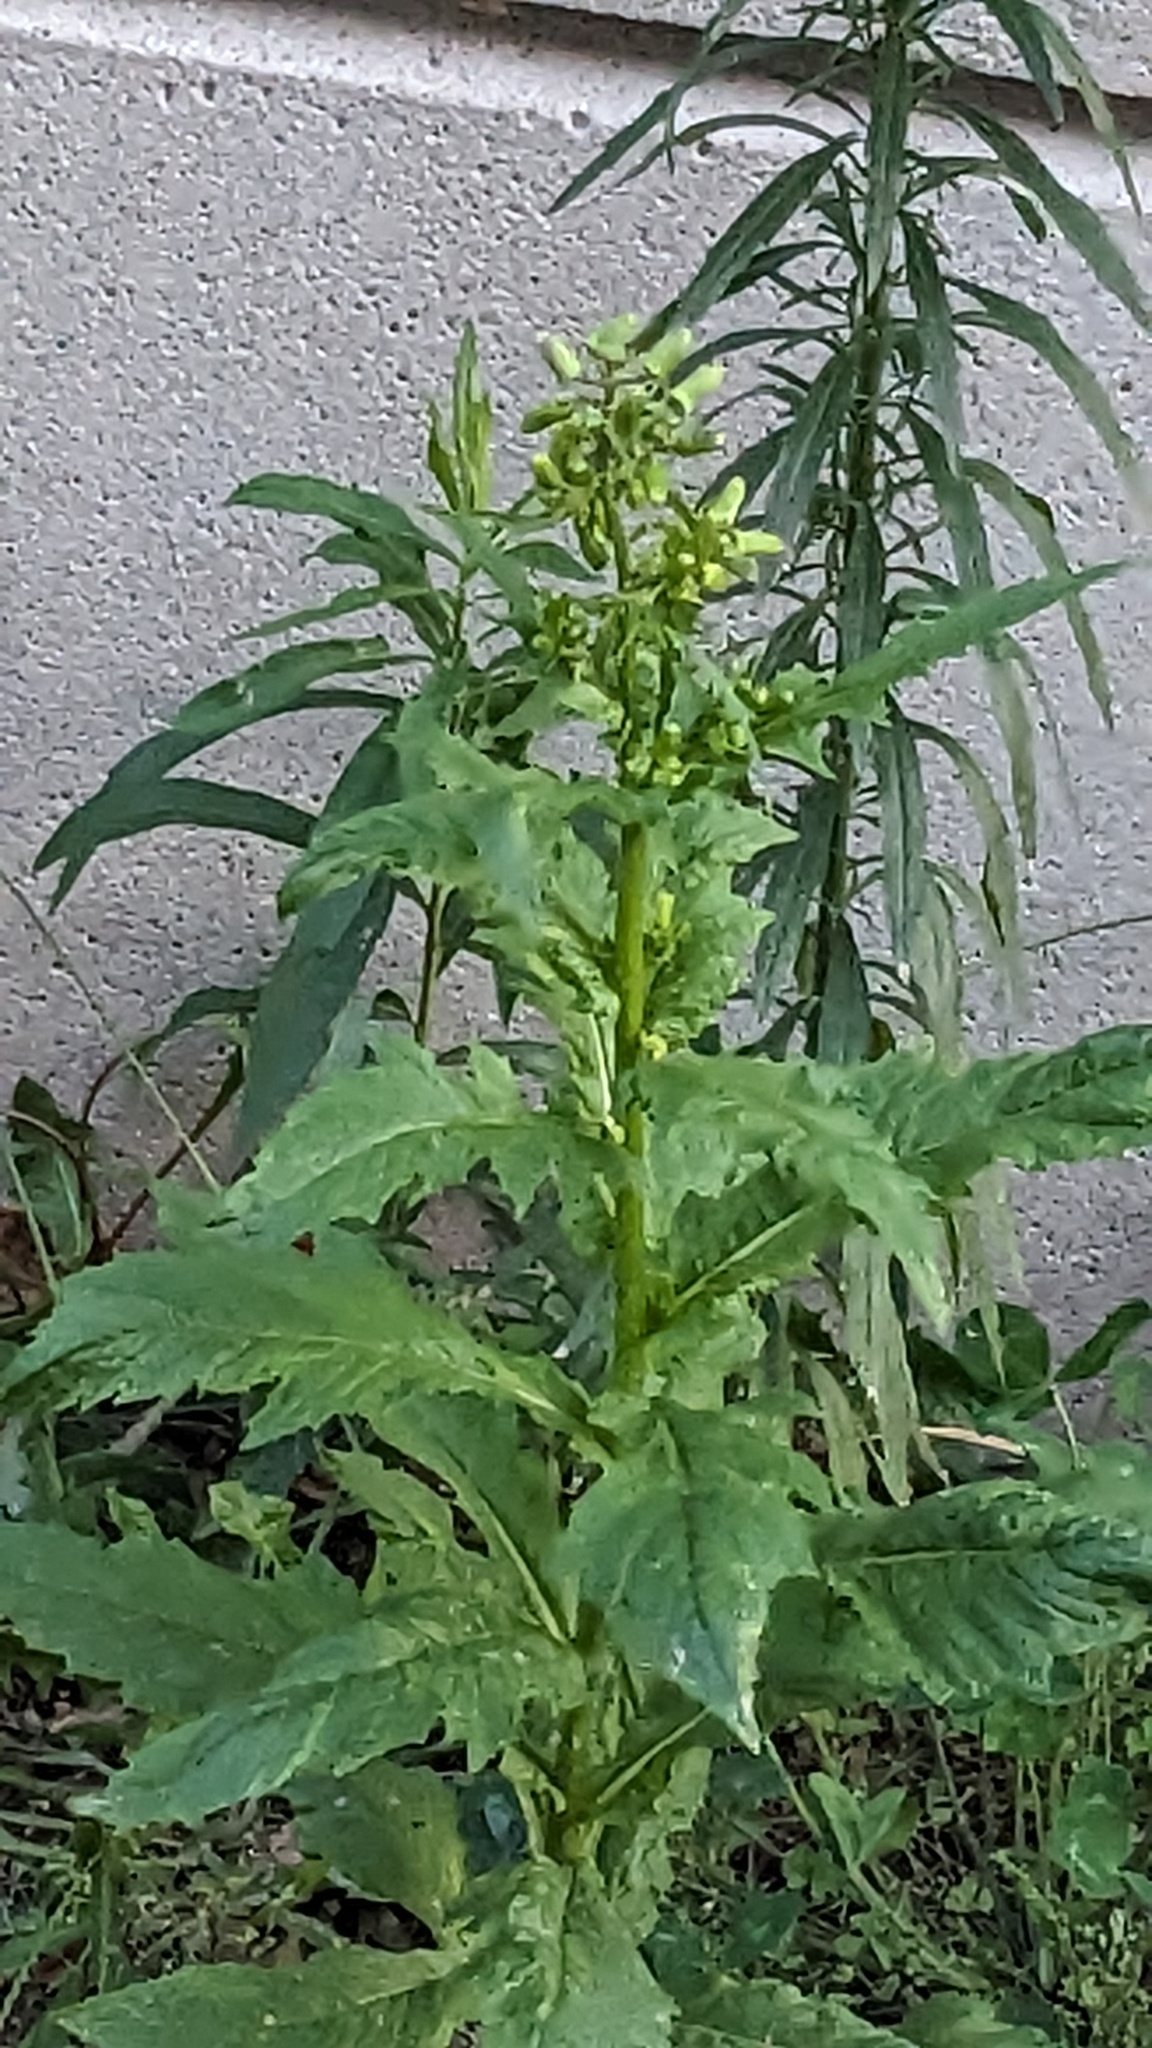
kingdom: Plantae
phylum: Tracheophyta
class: Magnoliopsida
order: Asterales
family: Asteraceae
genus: Erechtites
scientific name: Erechtites hieraciifolius
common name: American burnweed
